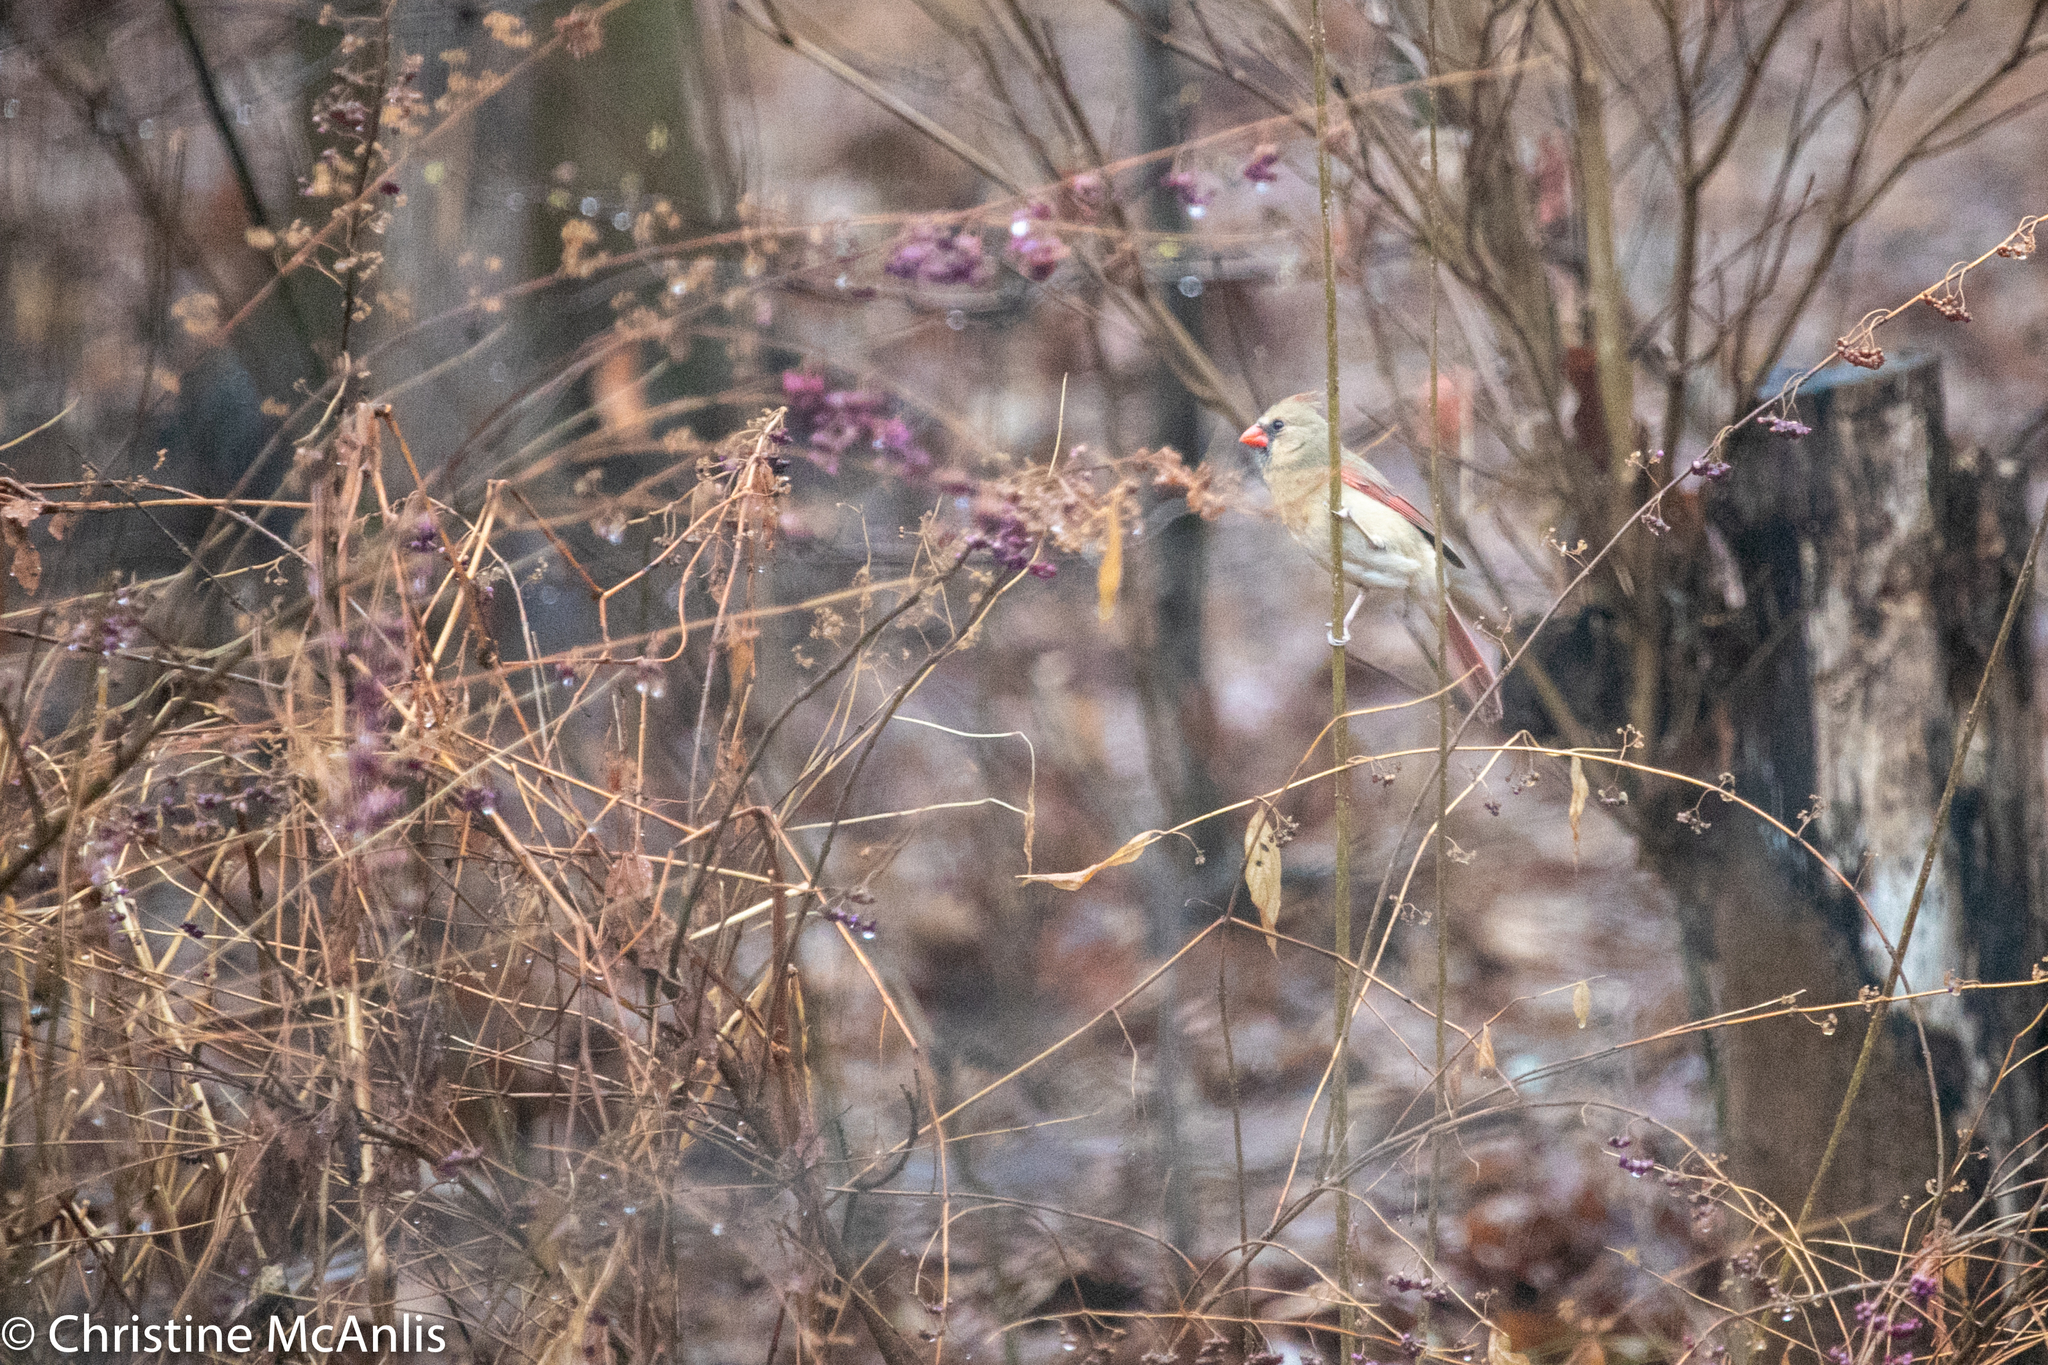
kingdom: Animalia
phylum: Chordata
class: Aves
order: Passeriformes
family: Cardinalidae
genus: Cardinalis
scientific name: Cardinalis cardinalis
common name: Northern cardinal
